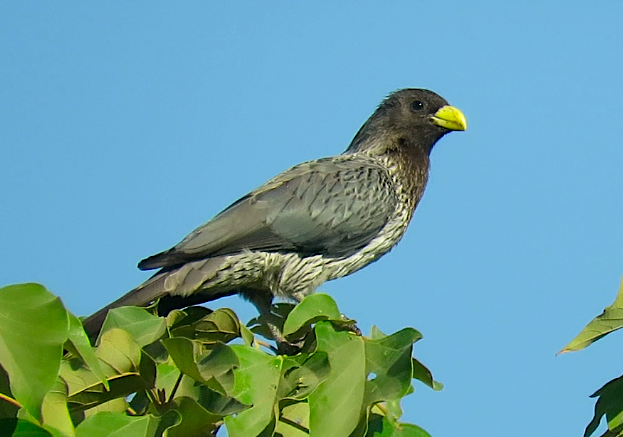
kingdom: Animalia
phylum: Chordata
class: Aves
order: Musophagiformes
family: Musophagidae
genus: Crinifer
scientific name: Crinifer piscator
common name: Western plantain-eater
